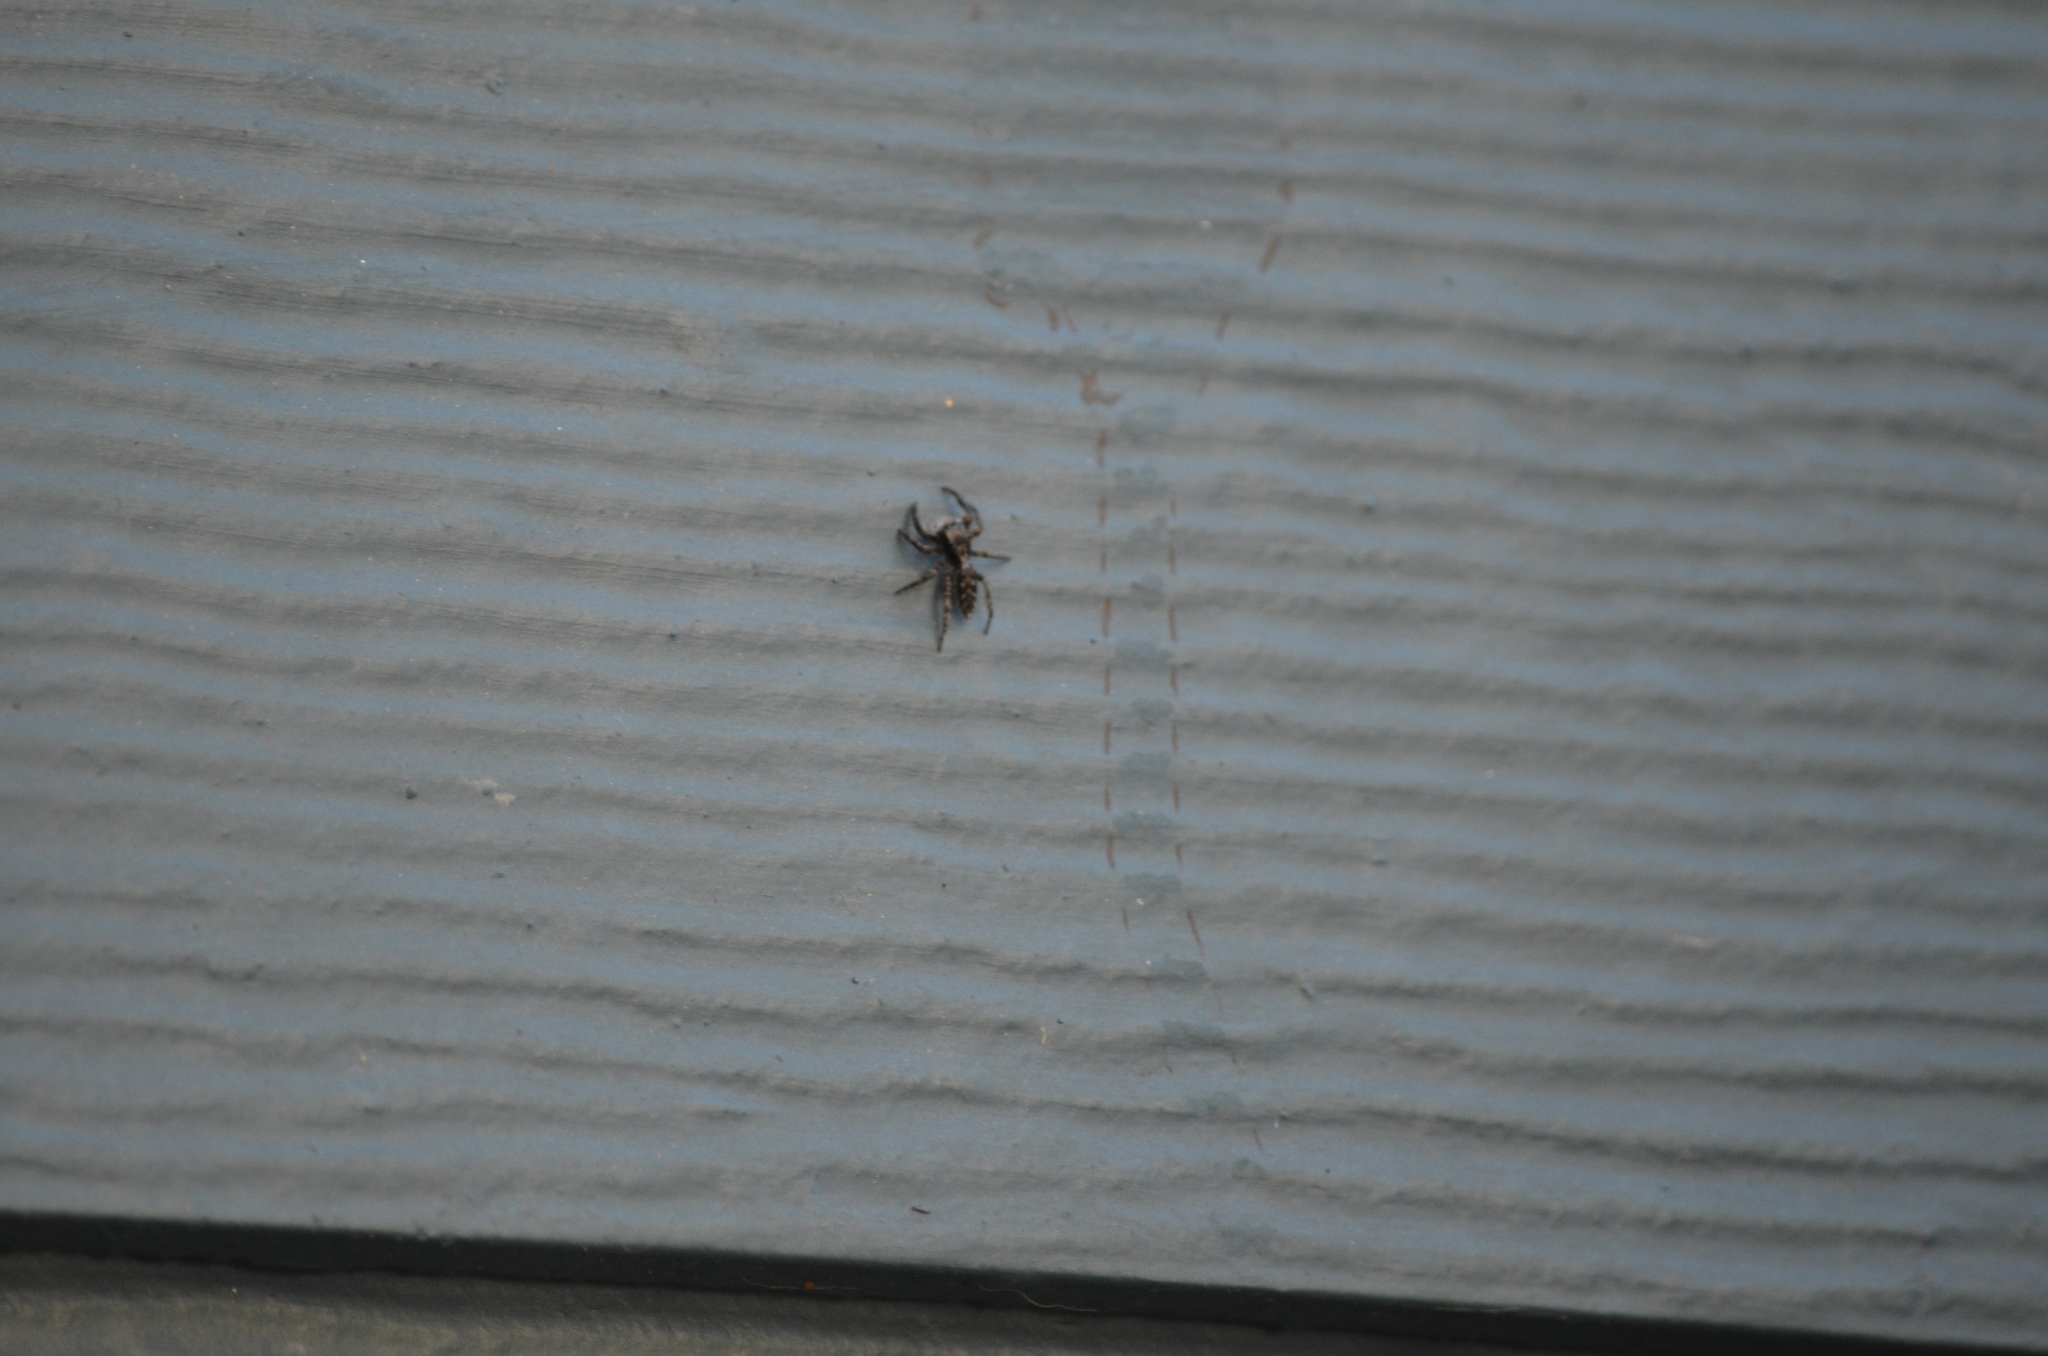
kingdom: Animalia
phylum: Arthropoda
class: Arachnida
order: Araneae
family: Salticidae
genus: Platycryptus
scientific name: Platycryptus californicus
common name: Jumping spiders
